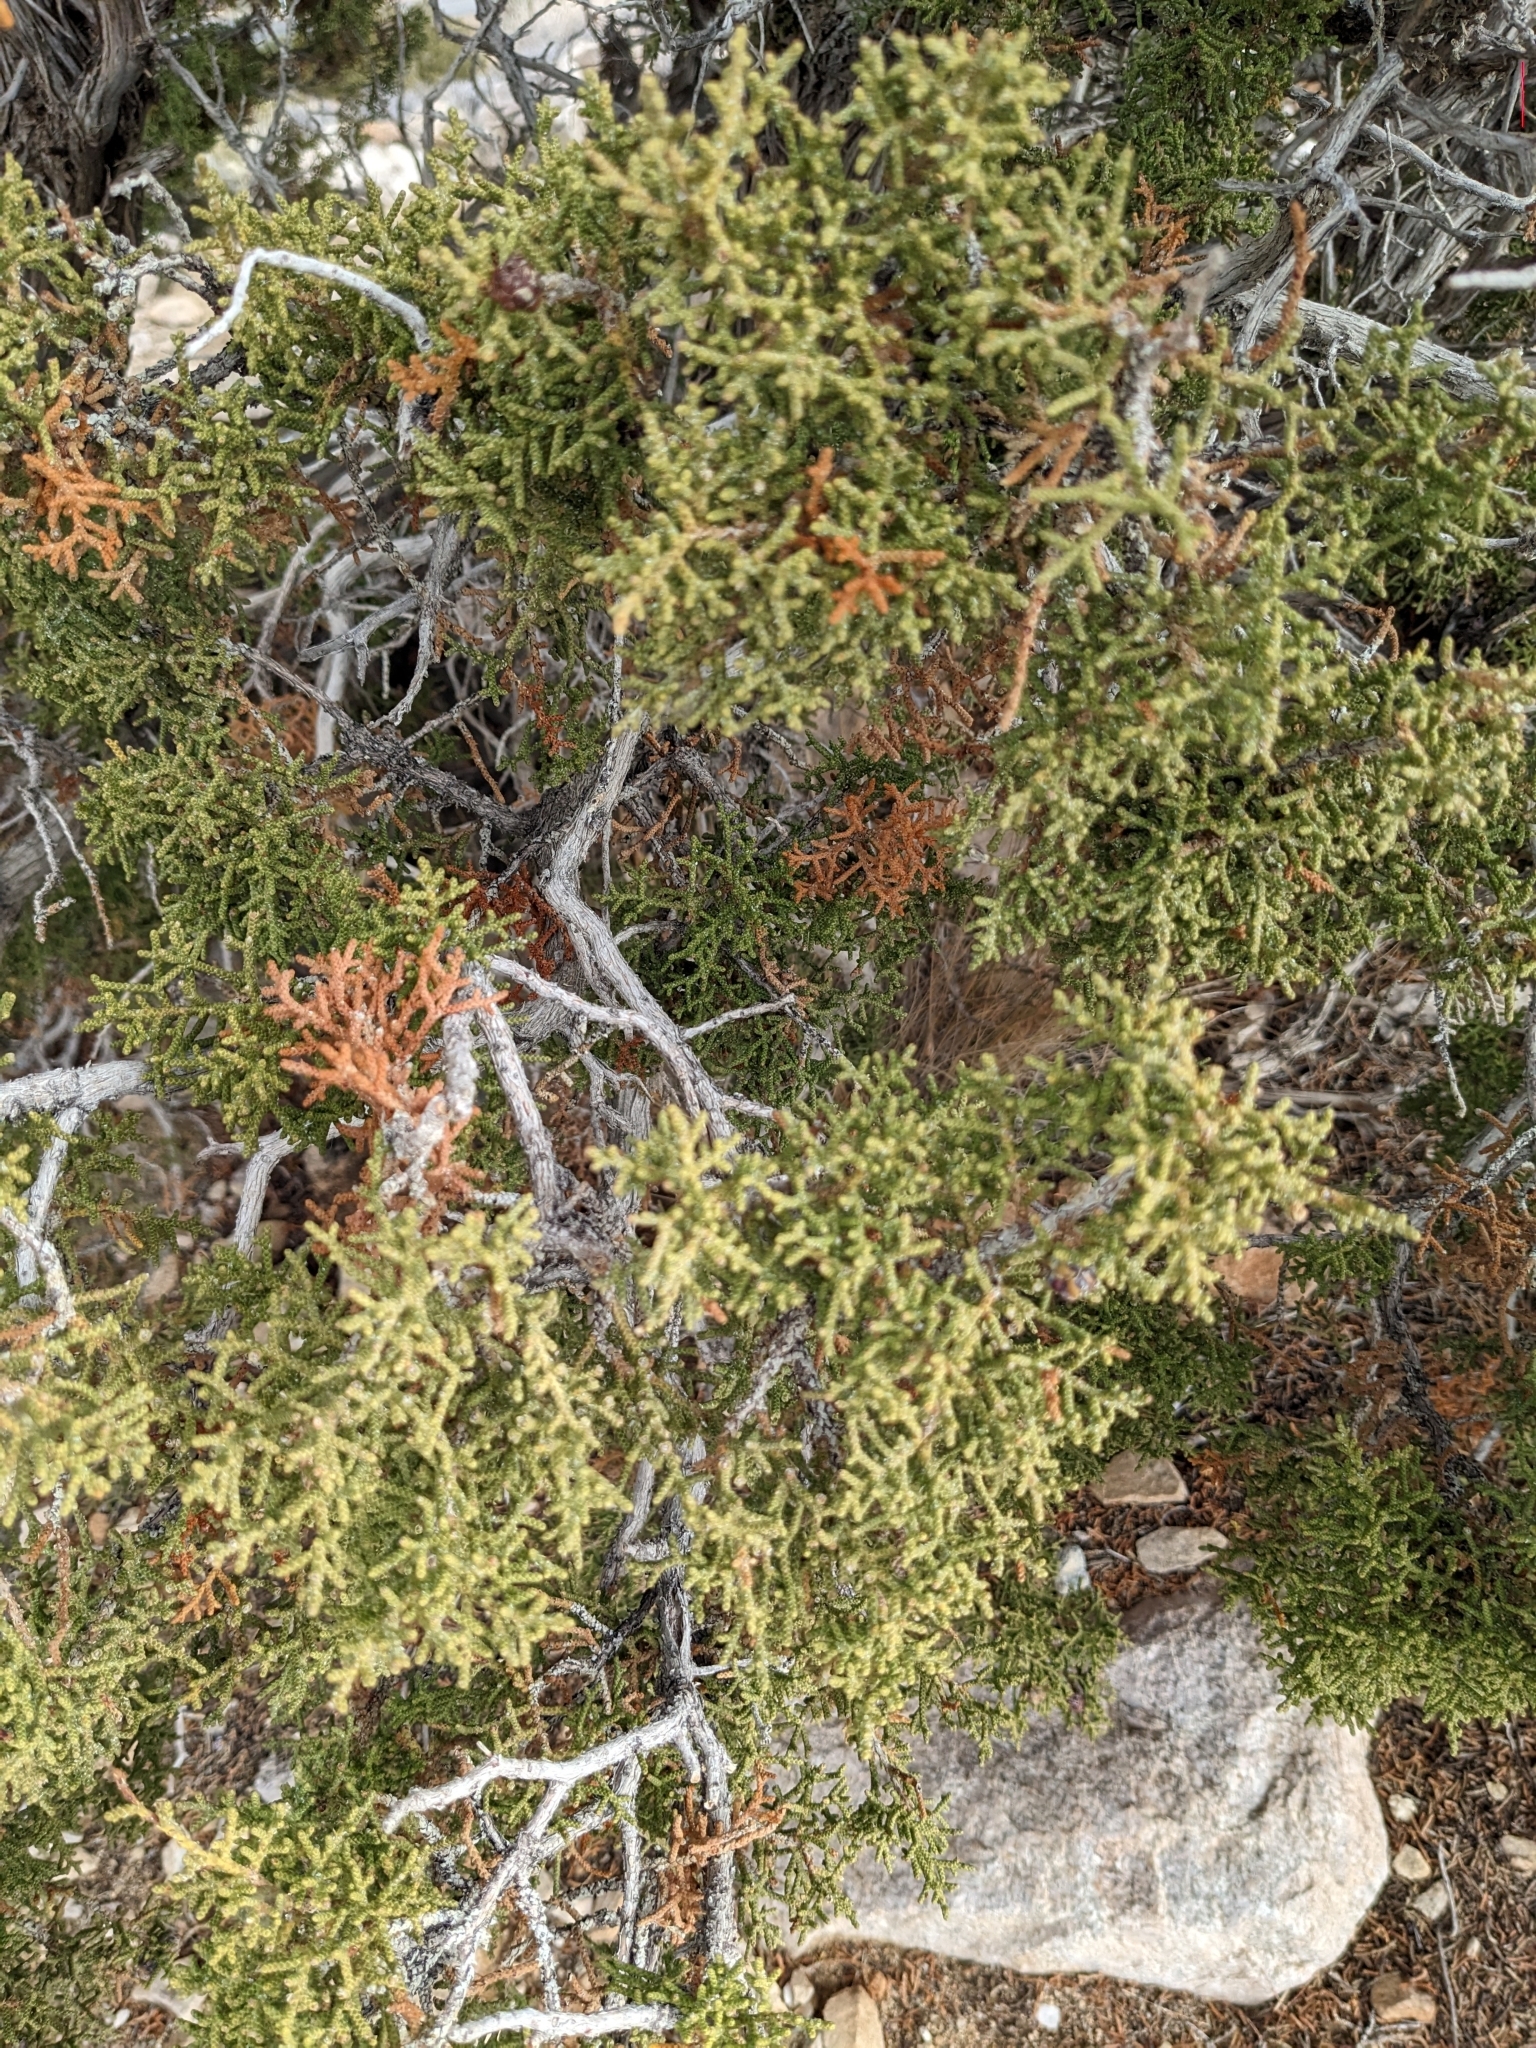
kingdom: Plantae
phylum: Tracheophyta
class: Pinopsida
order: Pinales
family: Cupressaceae
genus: Juniperus
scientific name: Juniperus californica
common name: California juniper
